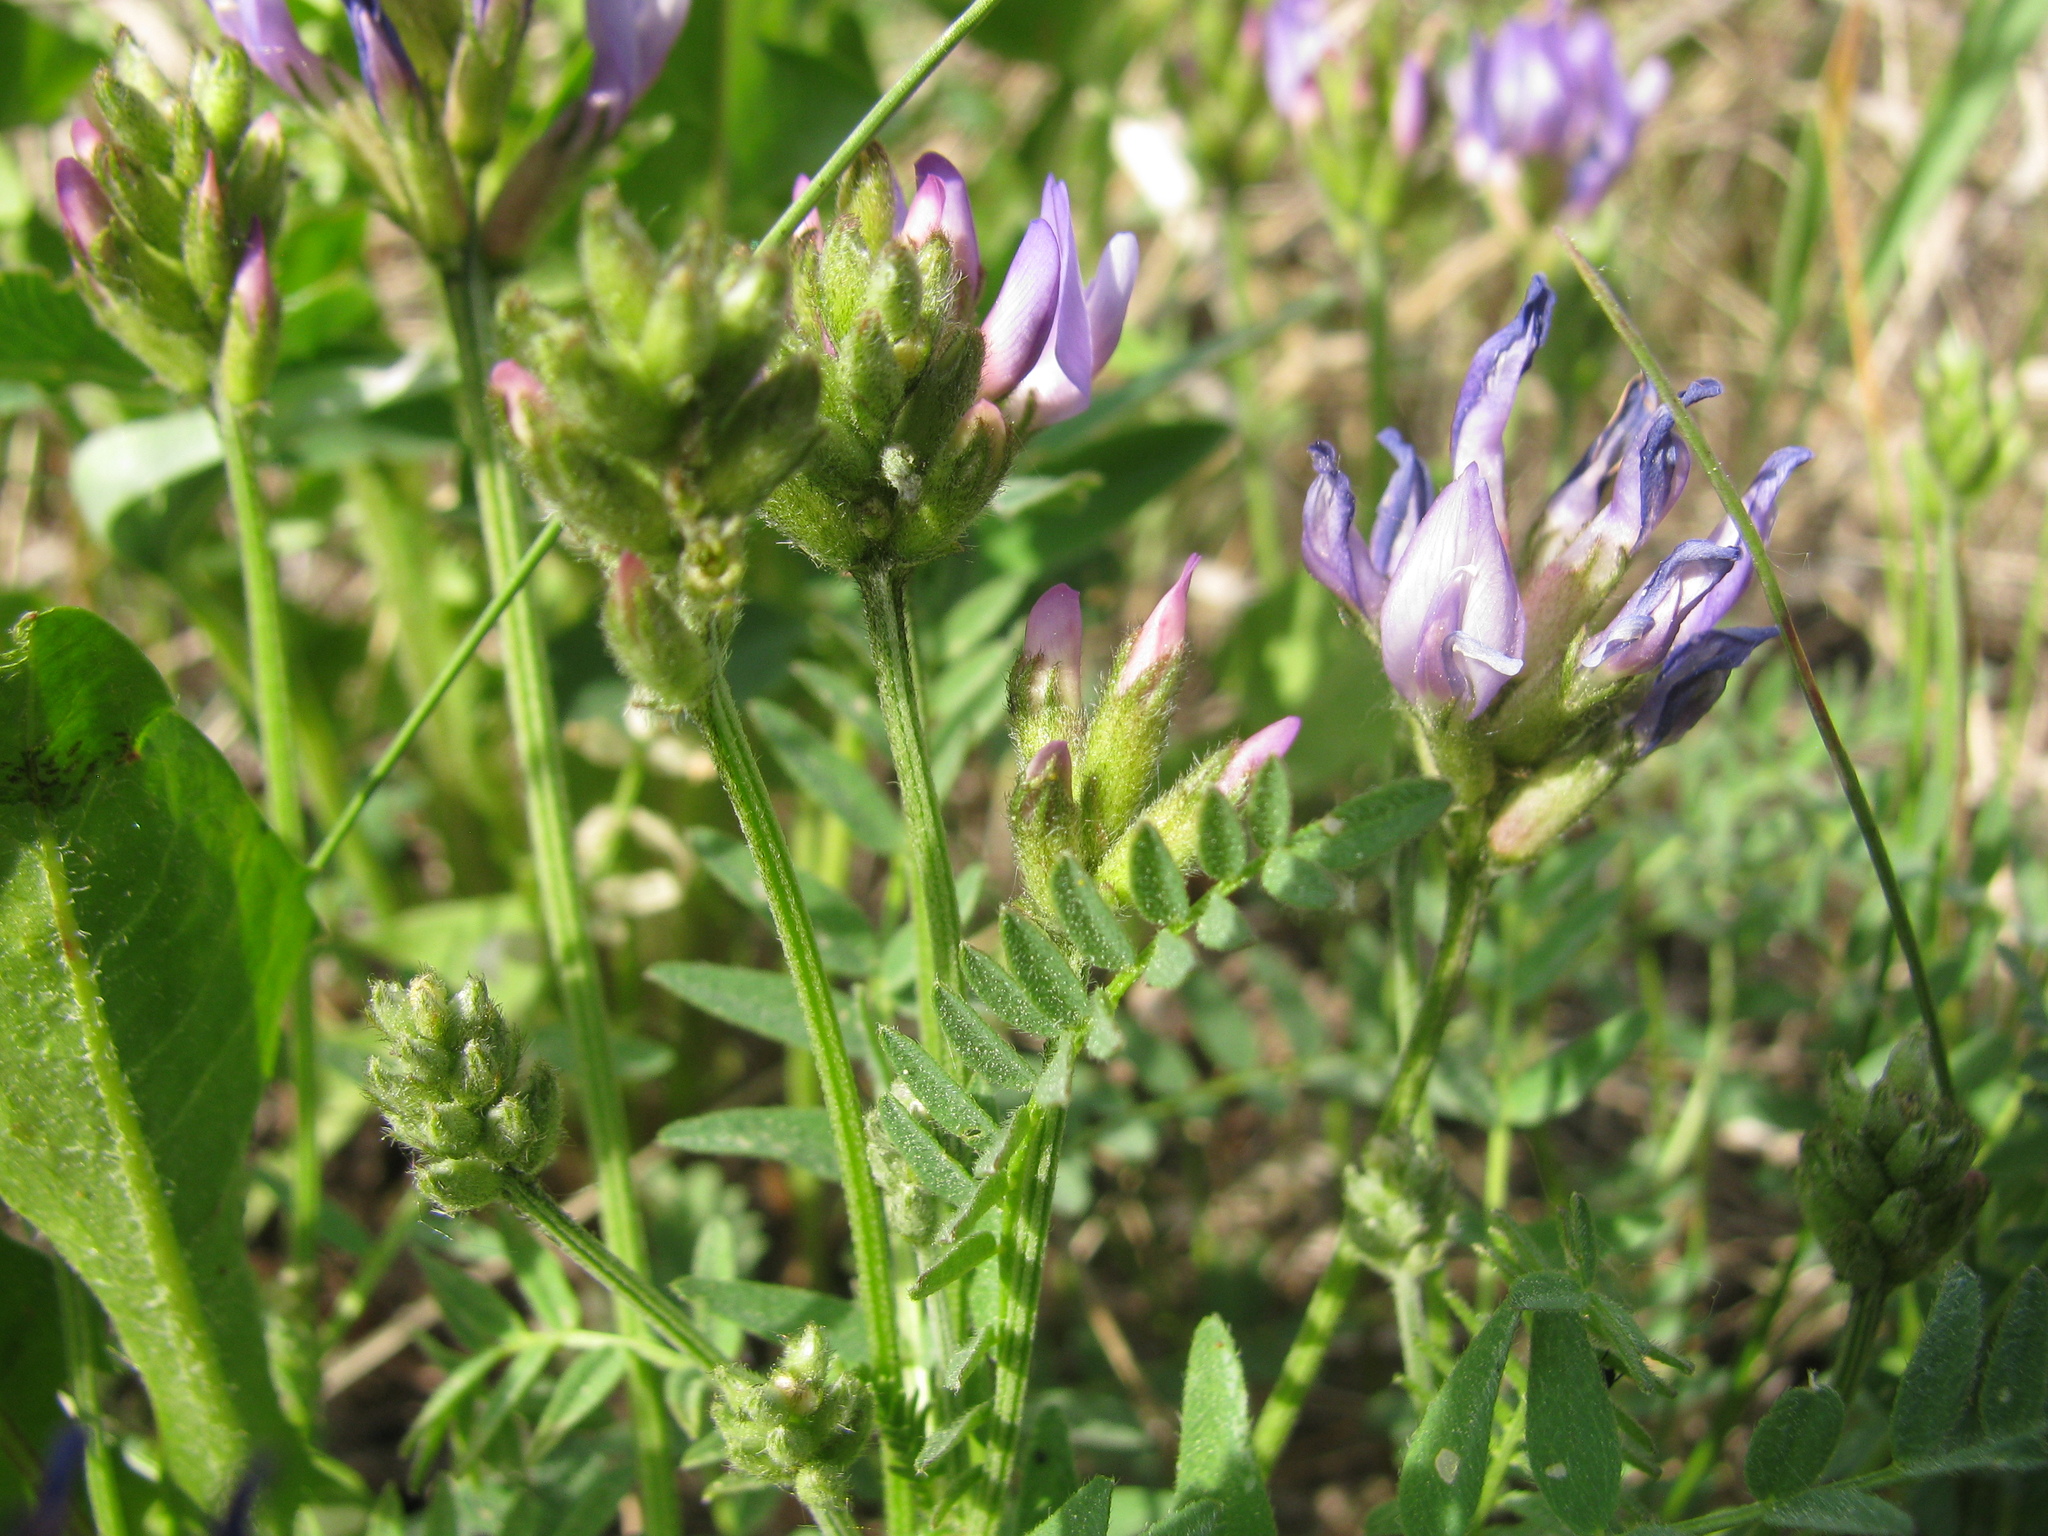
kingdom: Plantae
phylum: Tracheophyta
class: Magnoliopsida
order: Fabales
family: Fabaceae
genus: Astragalus
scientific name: Astragalus danicus
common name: Purple milk-vetch
